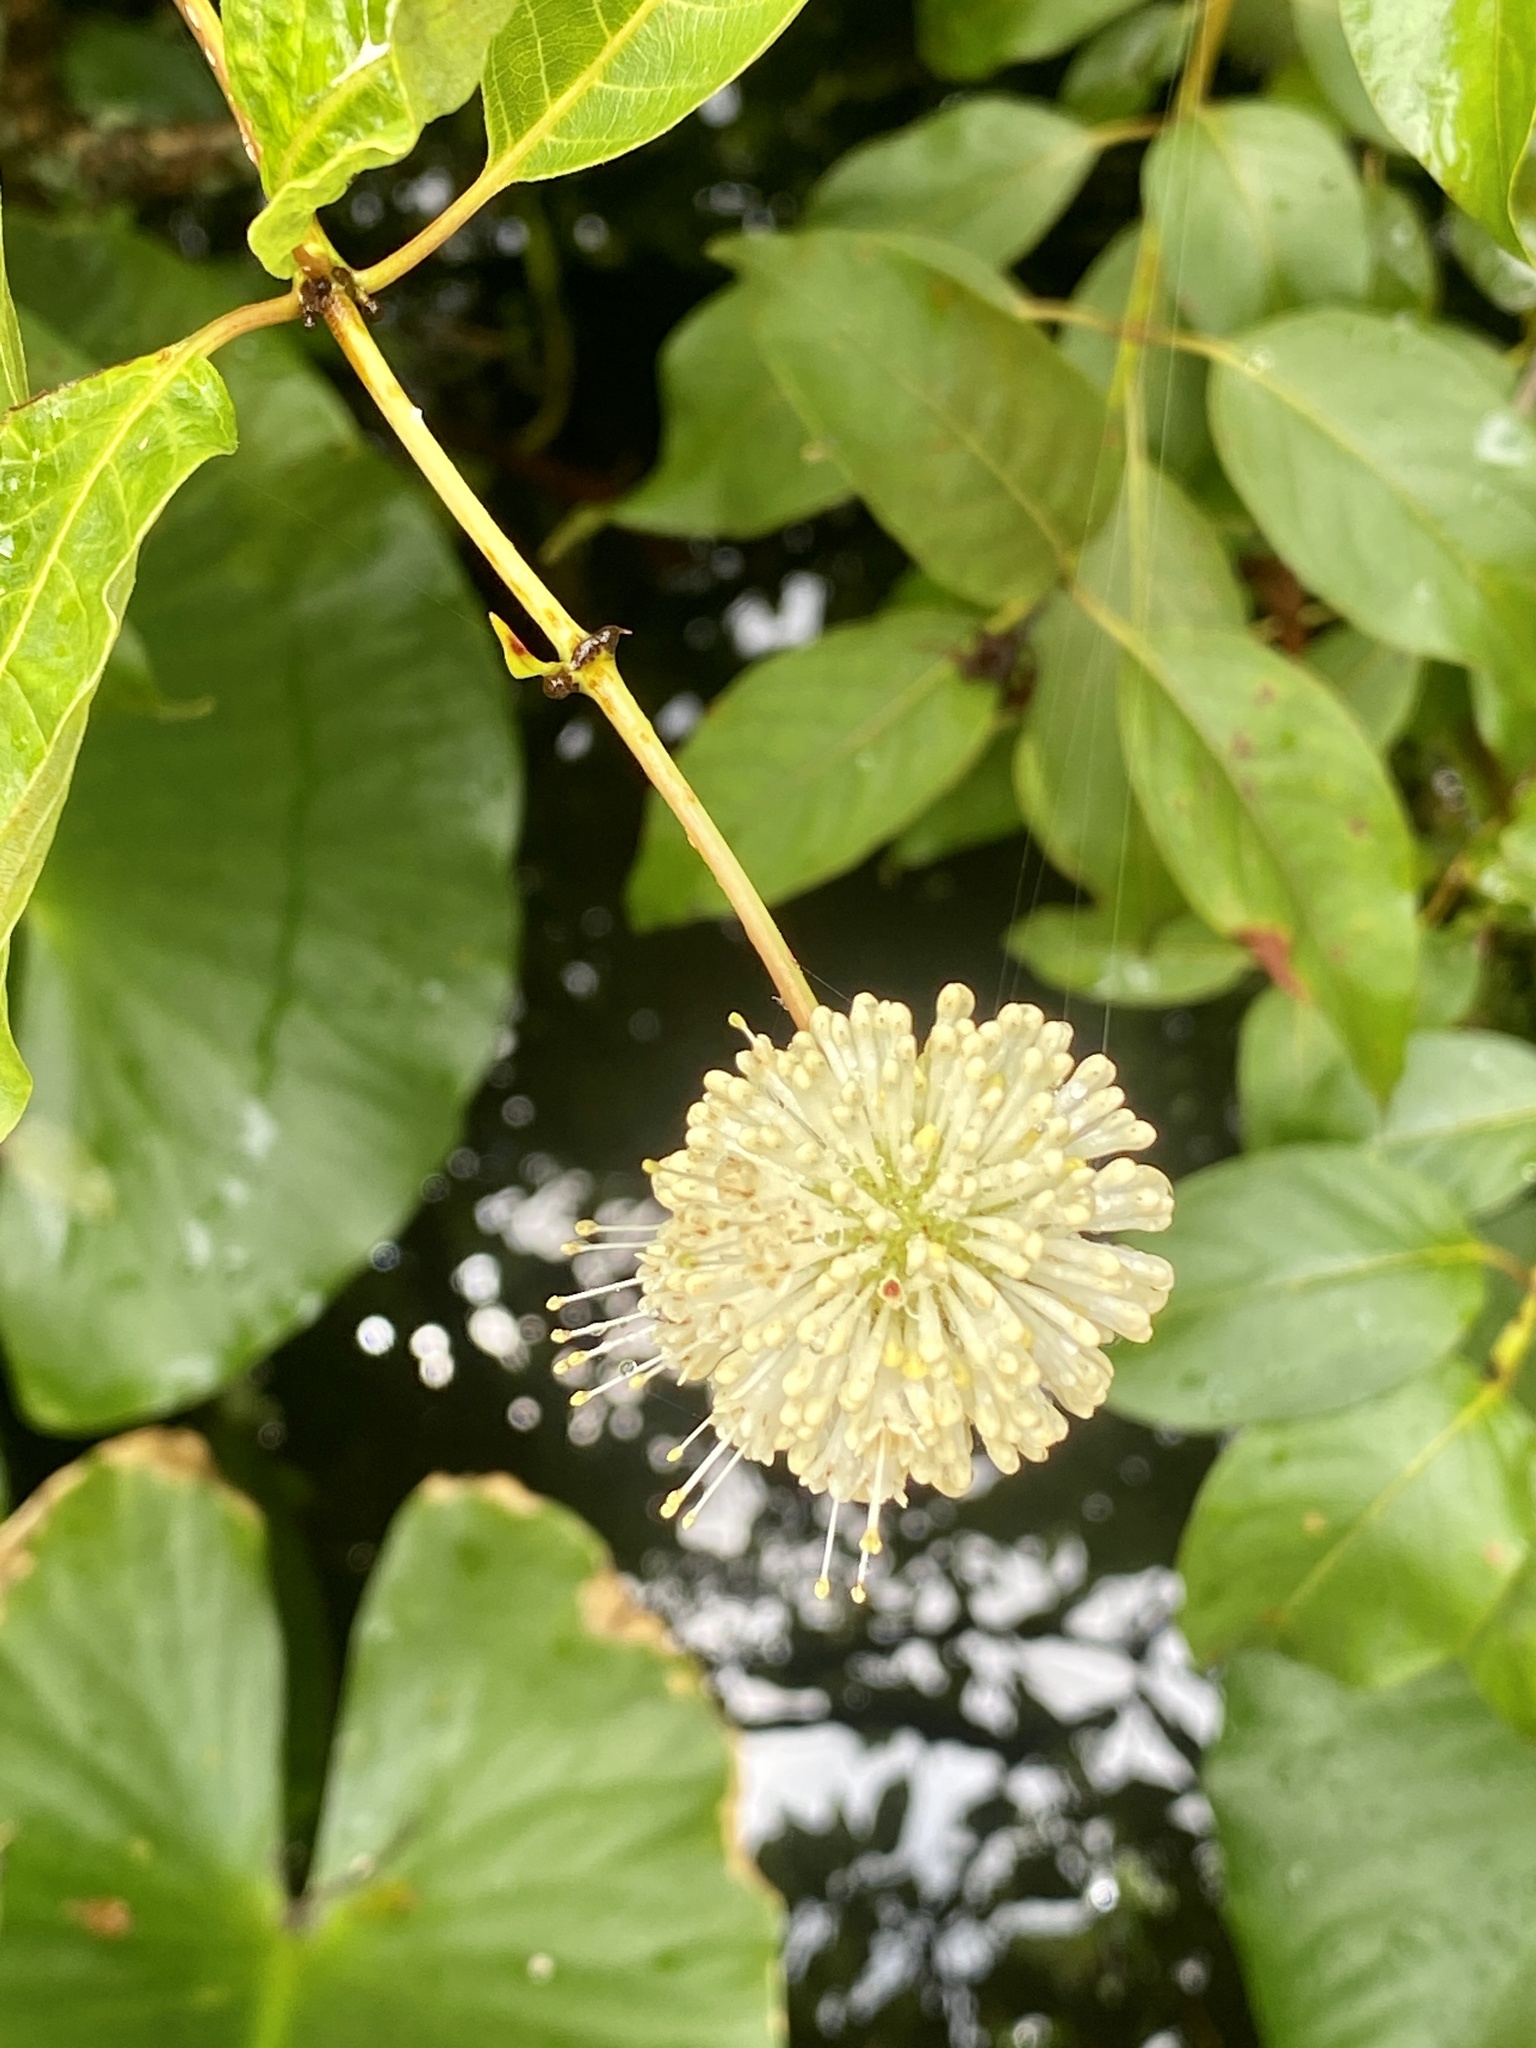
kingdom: Plantae
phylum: Tracheophyta
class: Magnoliopsida
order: Gentianales
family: Rubiaceae
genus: Cephalanthus
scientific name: Cephalanthus occidentalis
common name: Button-willow
